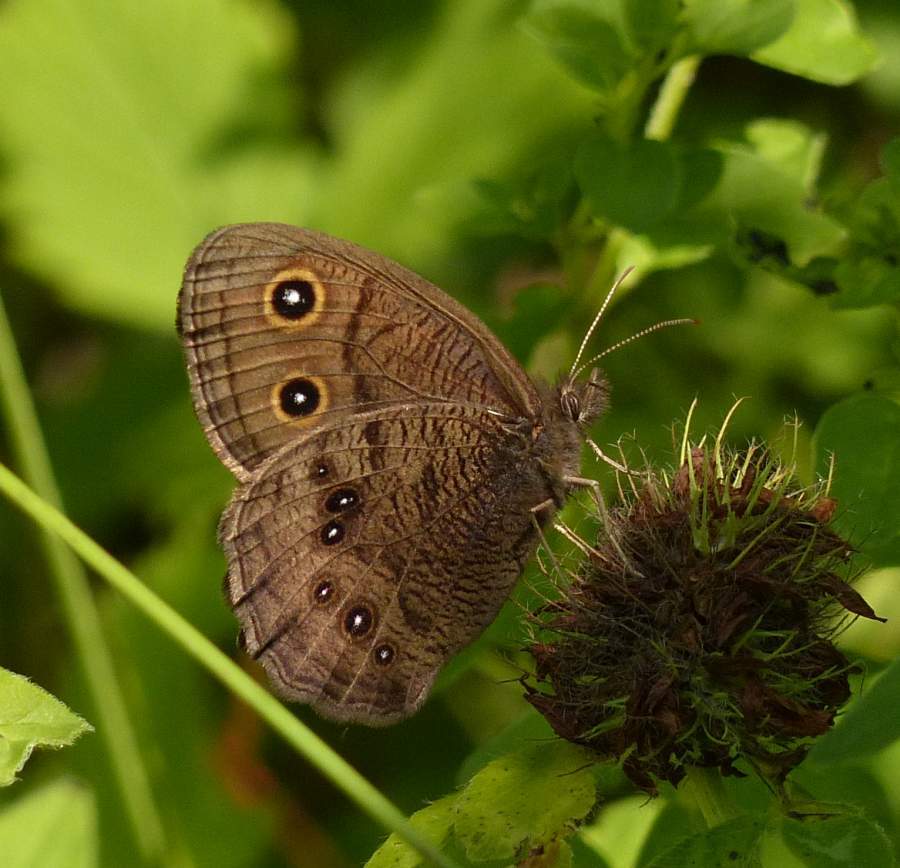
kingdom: Animalia
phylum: Arthropoda
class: Insecta
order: Lepidoptera
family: Nymphalidae
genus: Cercyonis
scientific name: Cercyonis pegala
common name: Common wood-nymph
